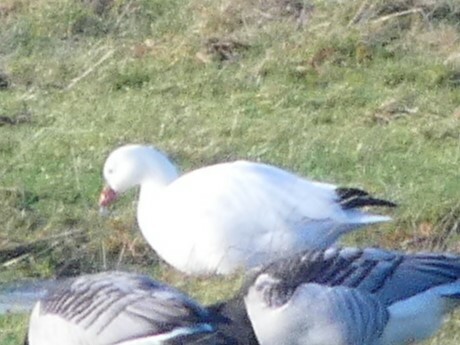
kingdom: Animalia
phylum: Chordata
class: Aves
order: Anseriformes
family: Anatidae
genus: Anser
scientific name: Anser rossii
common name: Ross's goose
